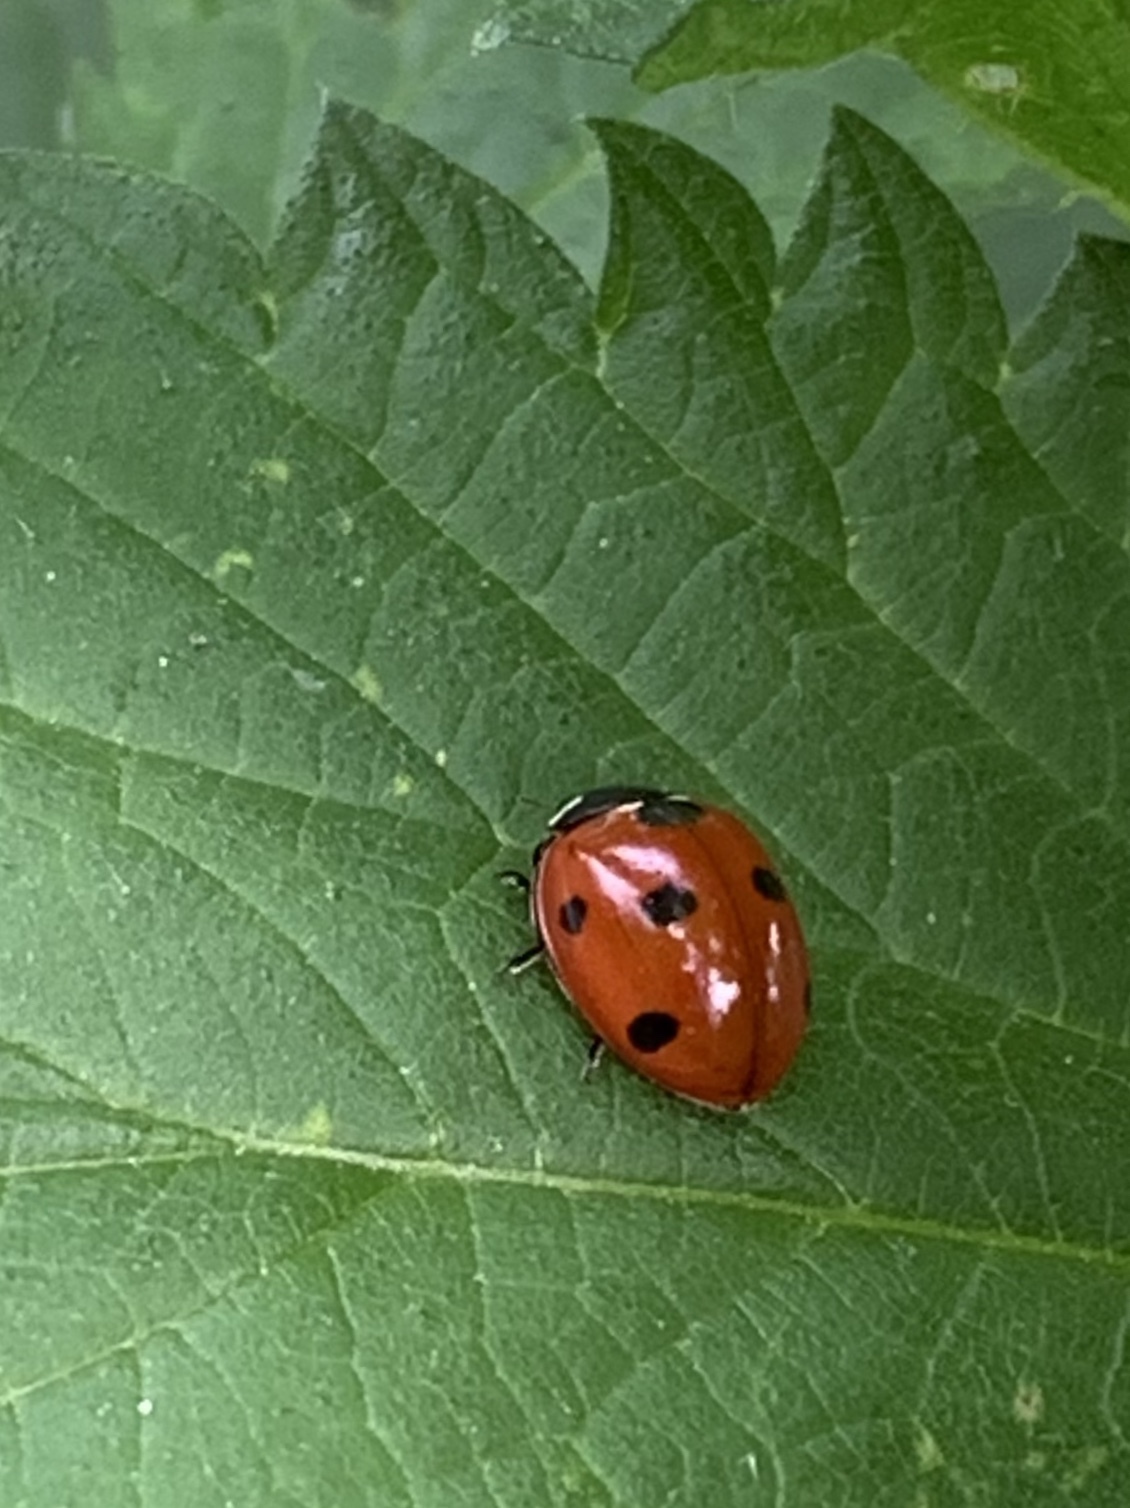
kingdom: Animalia
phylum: Arthropoda
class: Insecta
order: Coleoptera
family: Coccinellidae
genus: Coccinella
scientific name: Coccinella septempunctata
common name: Sevenspotted lady beetle
